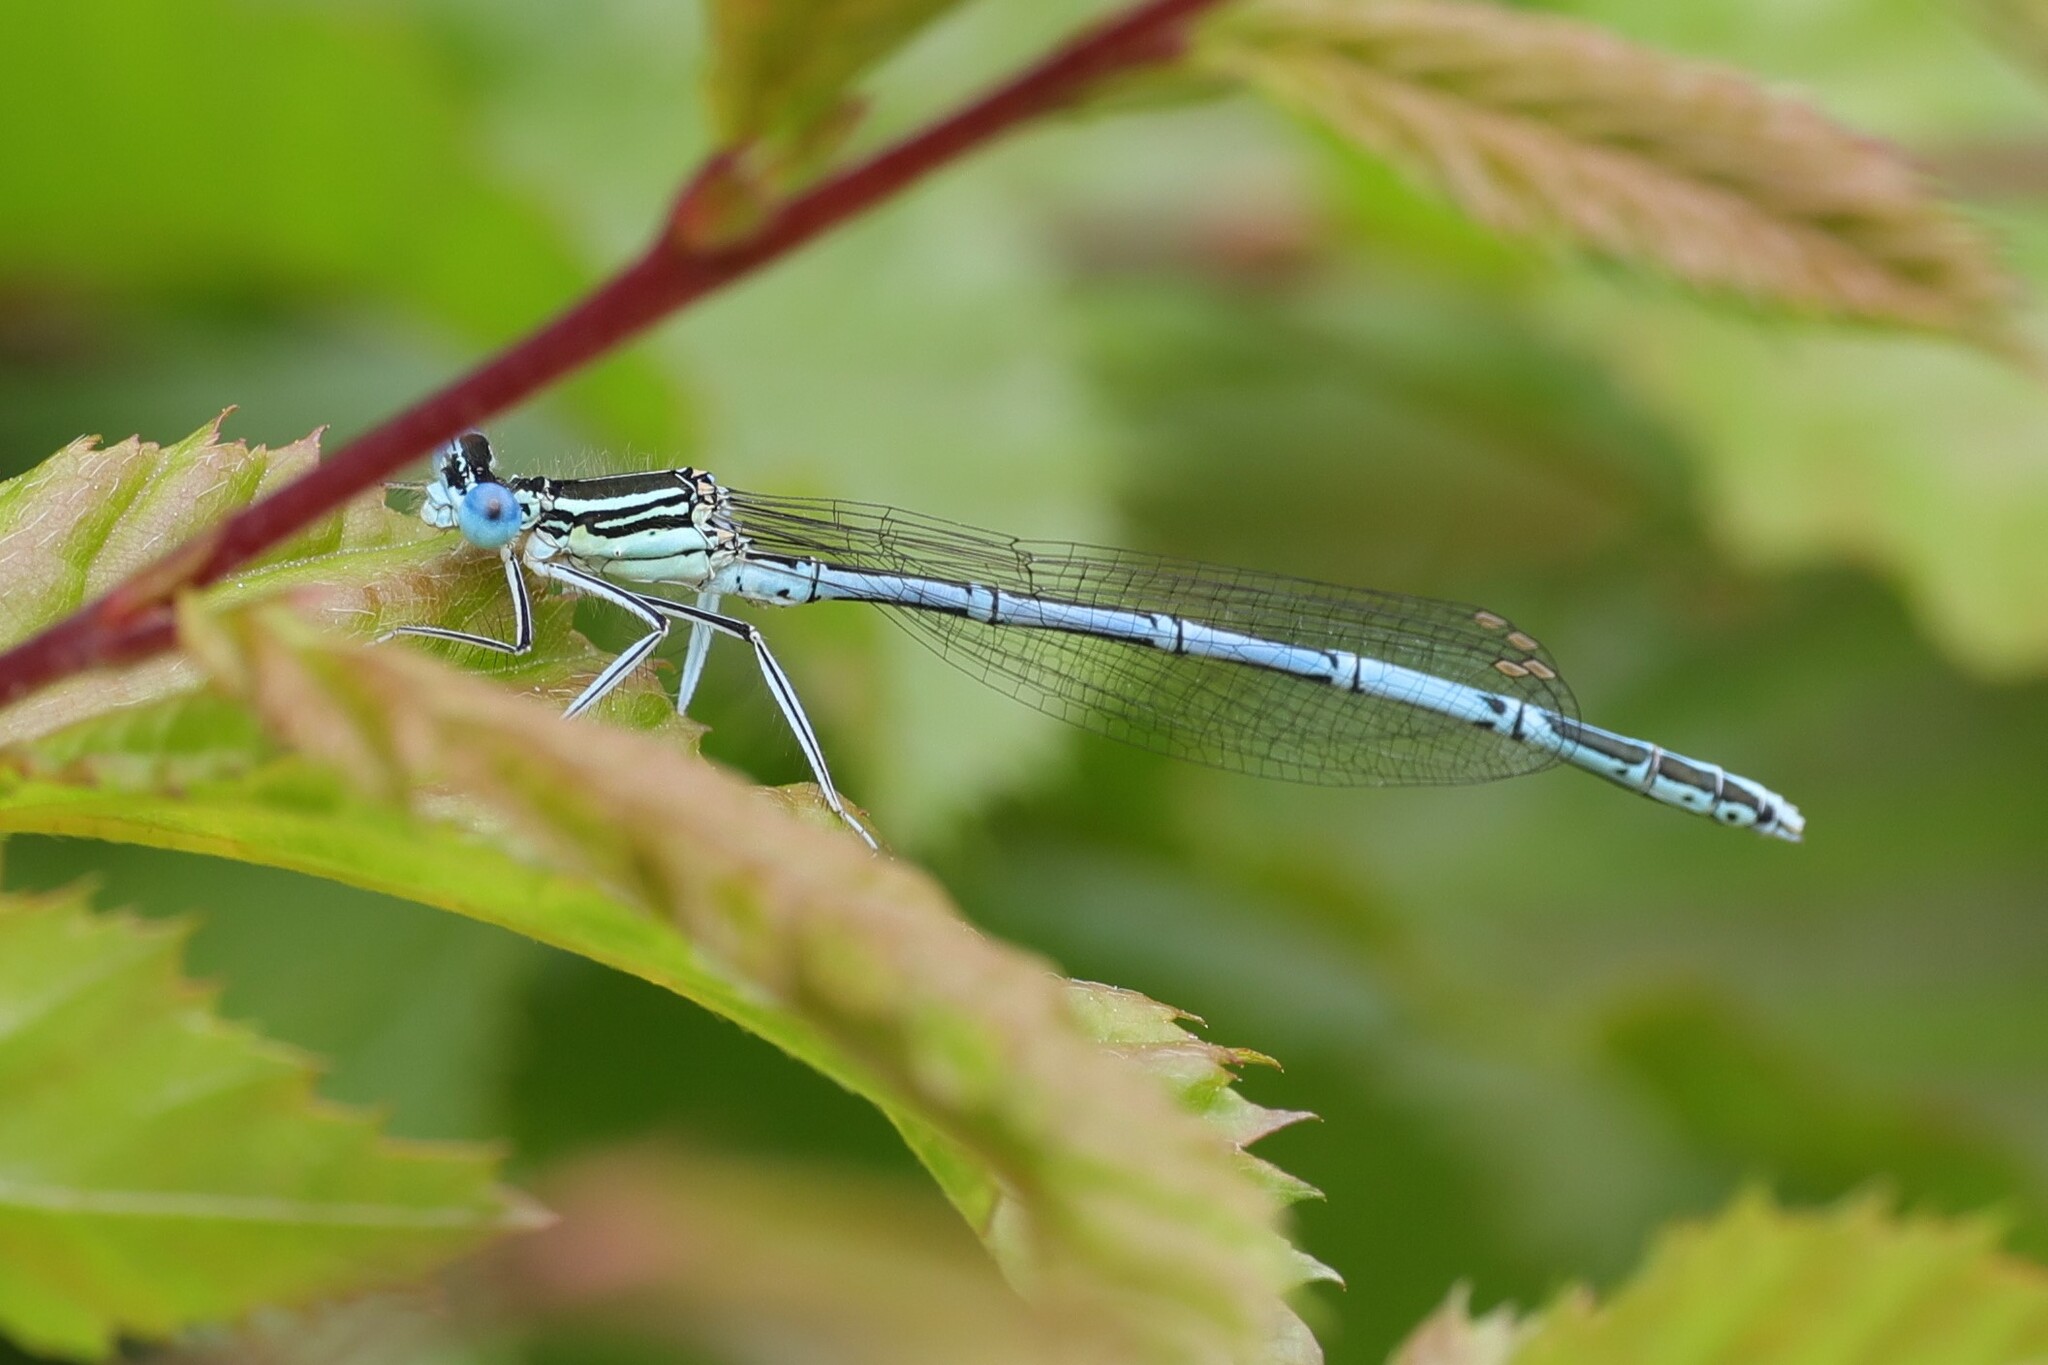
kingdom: Animalia
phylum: Arthropoda
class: Insecta
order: Odonata
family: Platycnemididae
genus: Platycnemis
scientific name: Platycnemis pennipes
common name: White-legged damselfly
